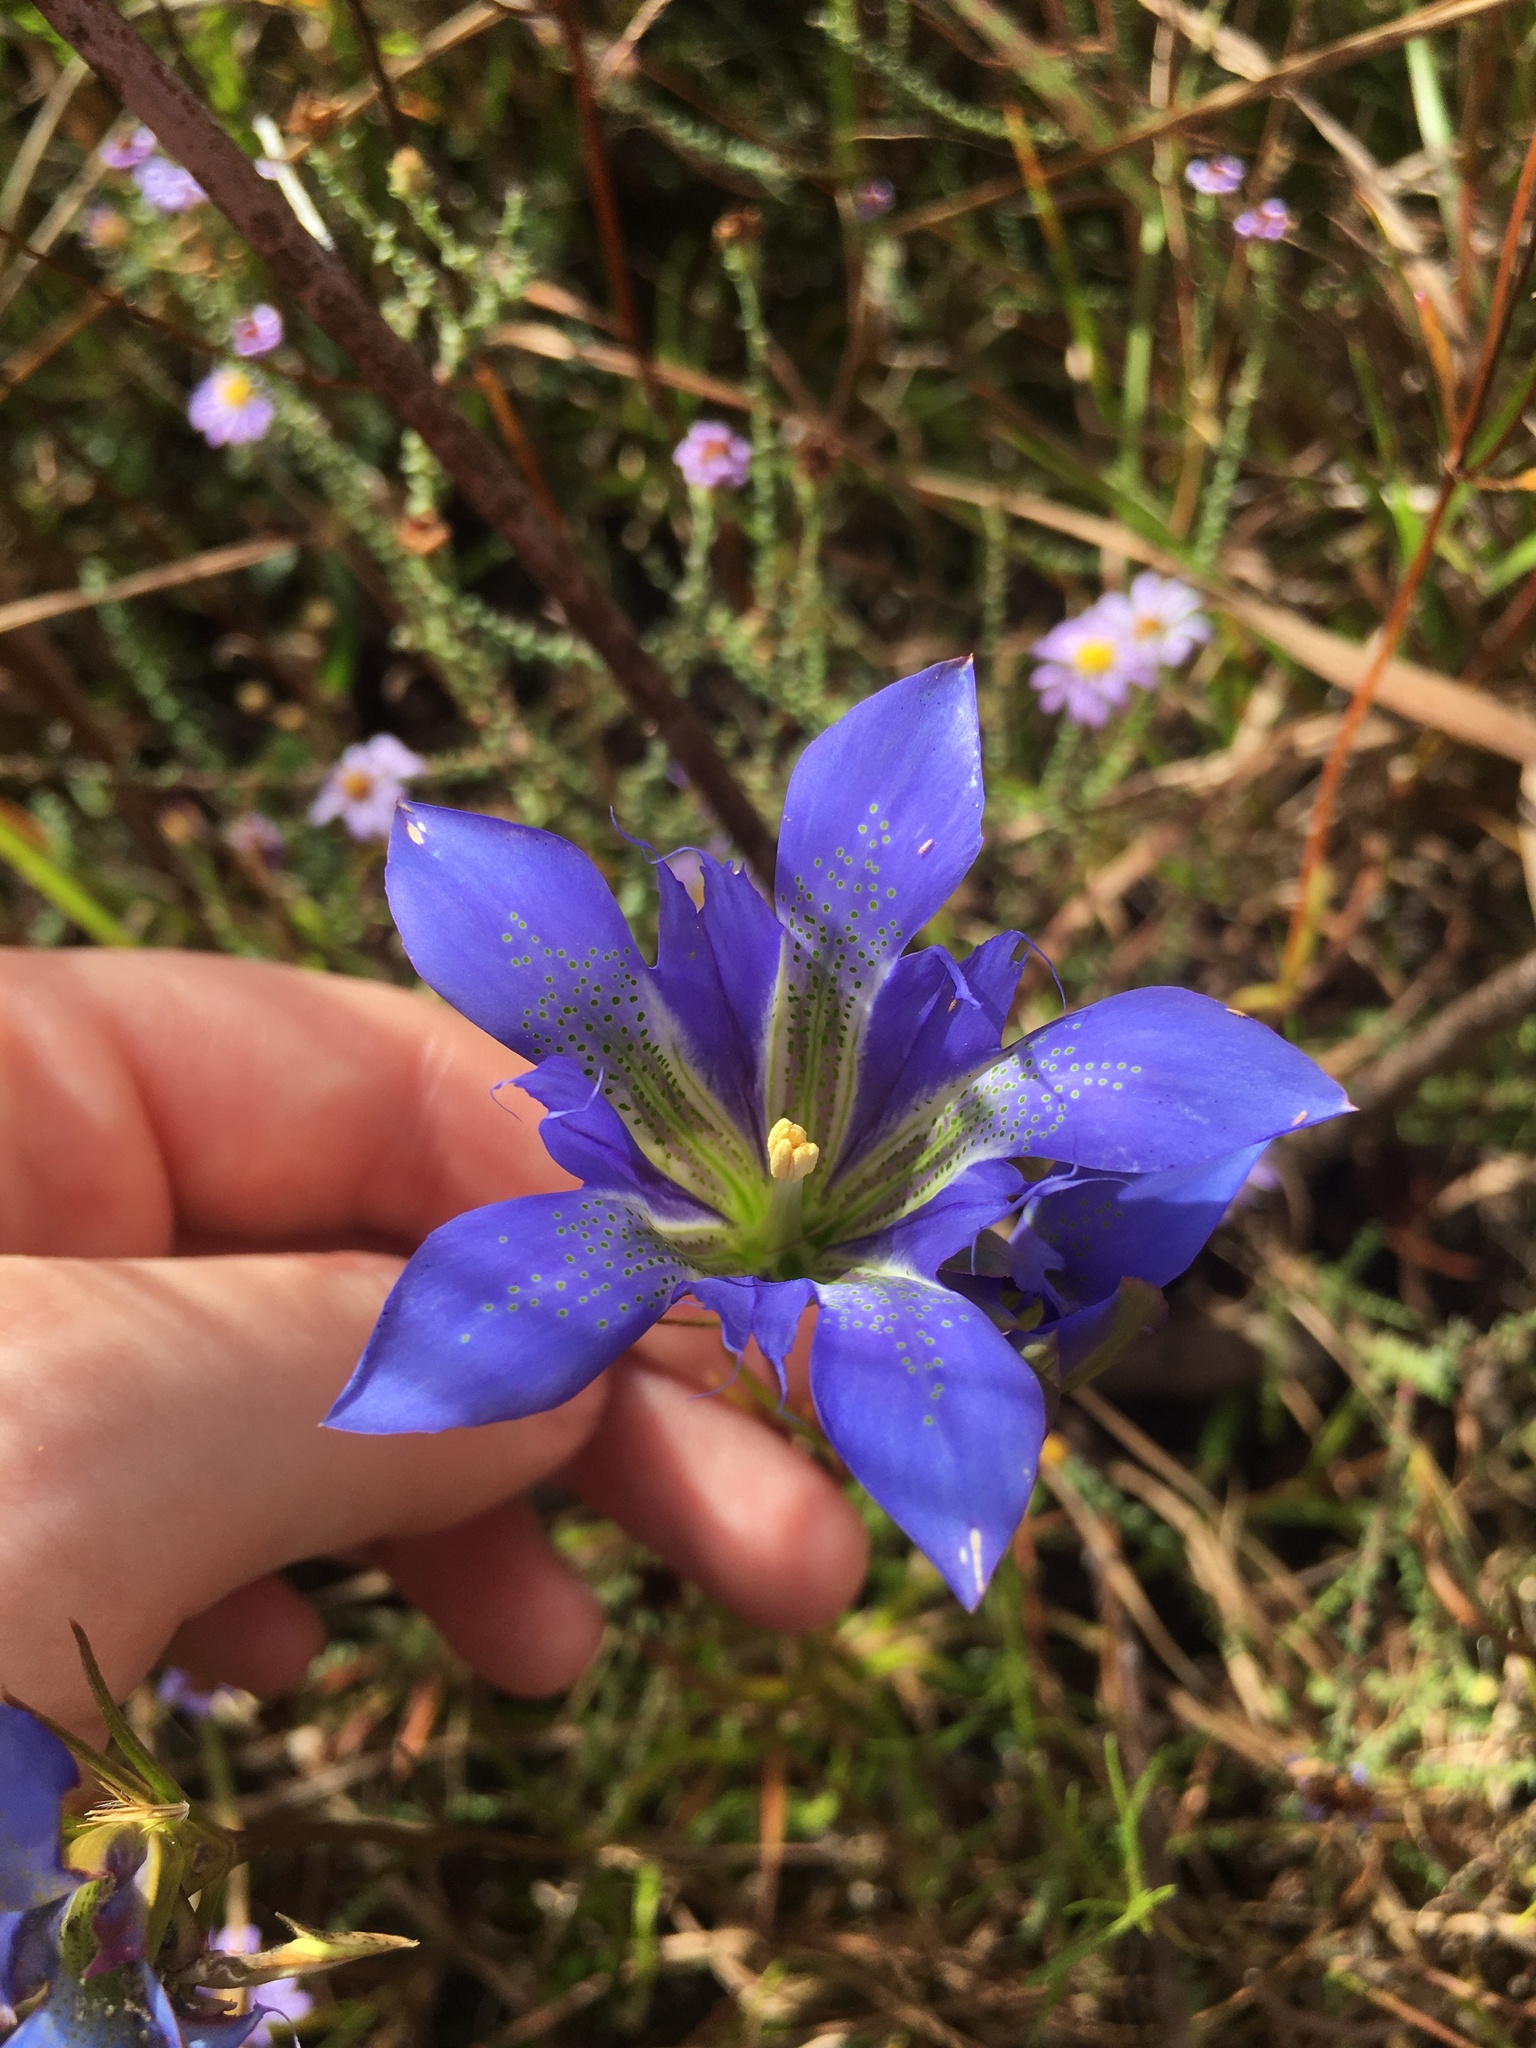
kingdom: Plantae
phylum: Tracheophyta
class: Magnoliopsida
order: Gentianales
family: Gentianaceae
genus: Gentiana
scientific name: Gentiana autumnalis
